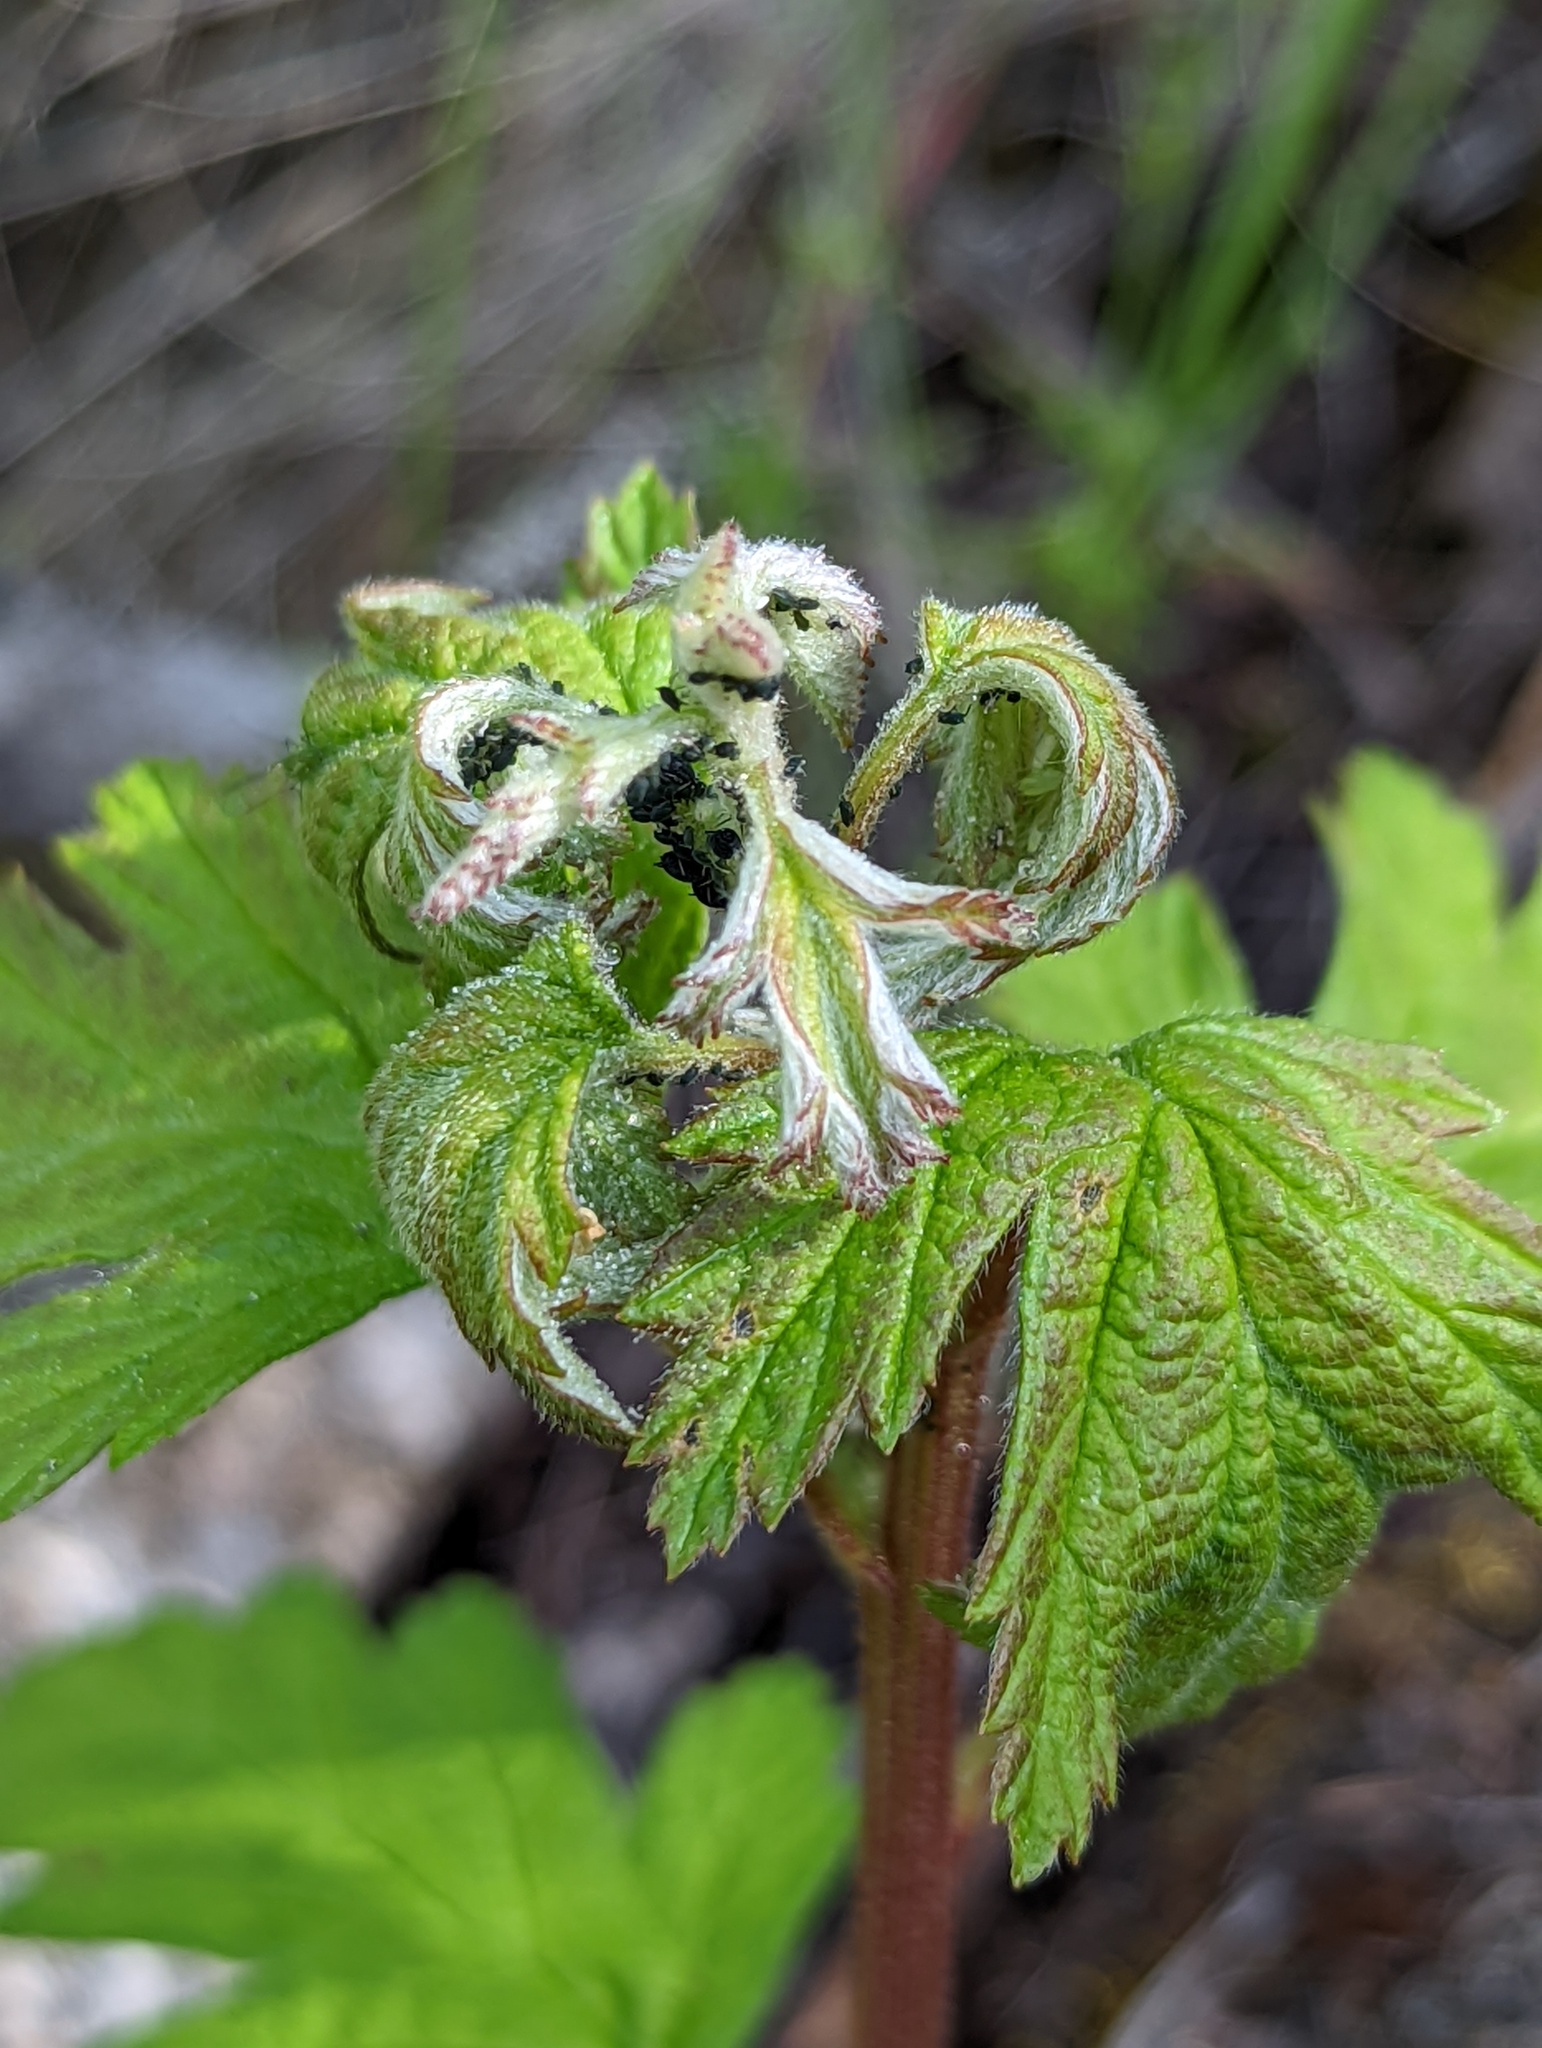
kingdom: Plantae
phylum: Tracheophyta
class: Magnoliopsida
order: Rosales
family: Rosaceae
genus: Holodiscus
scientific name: Holodiscus discolor
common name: Oceanspray
